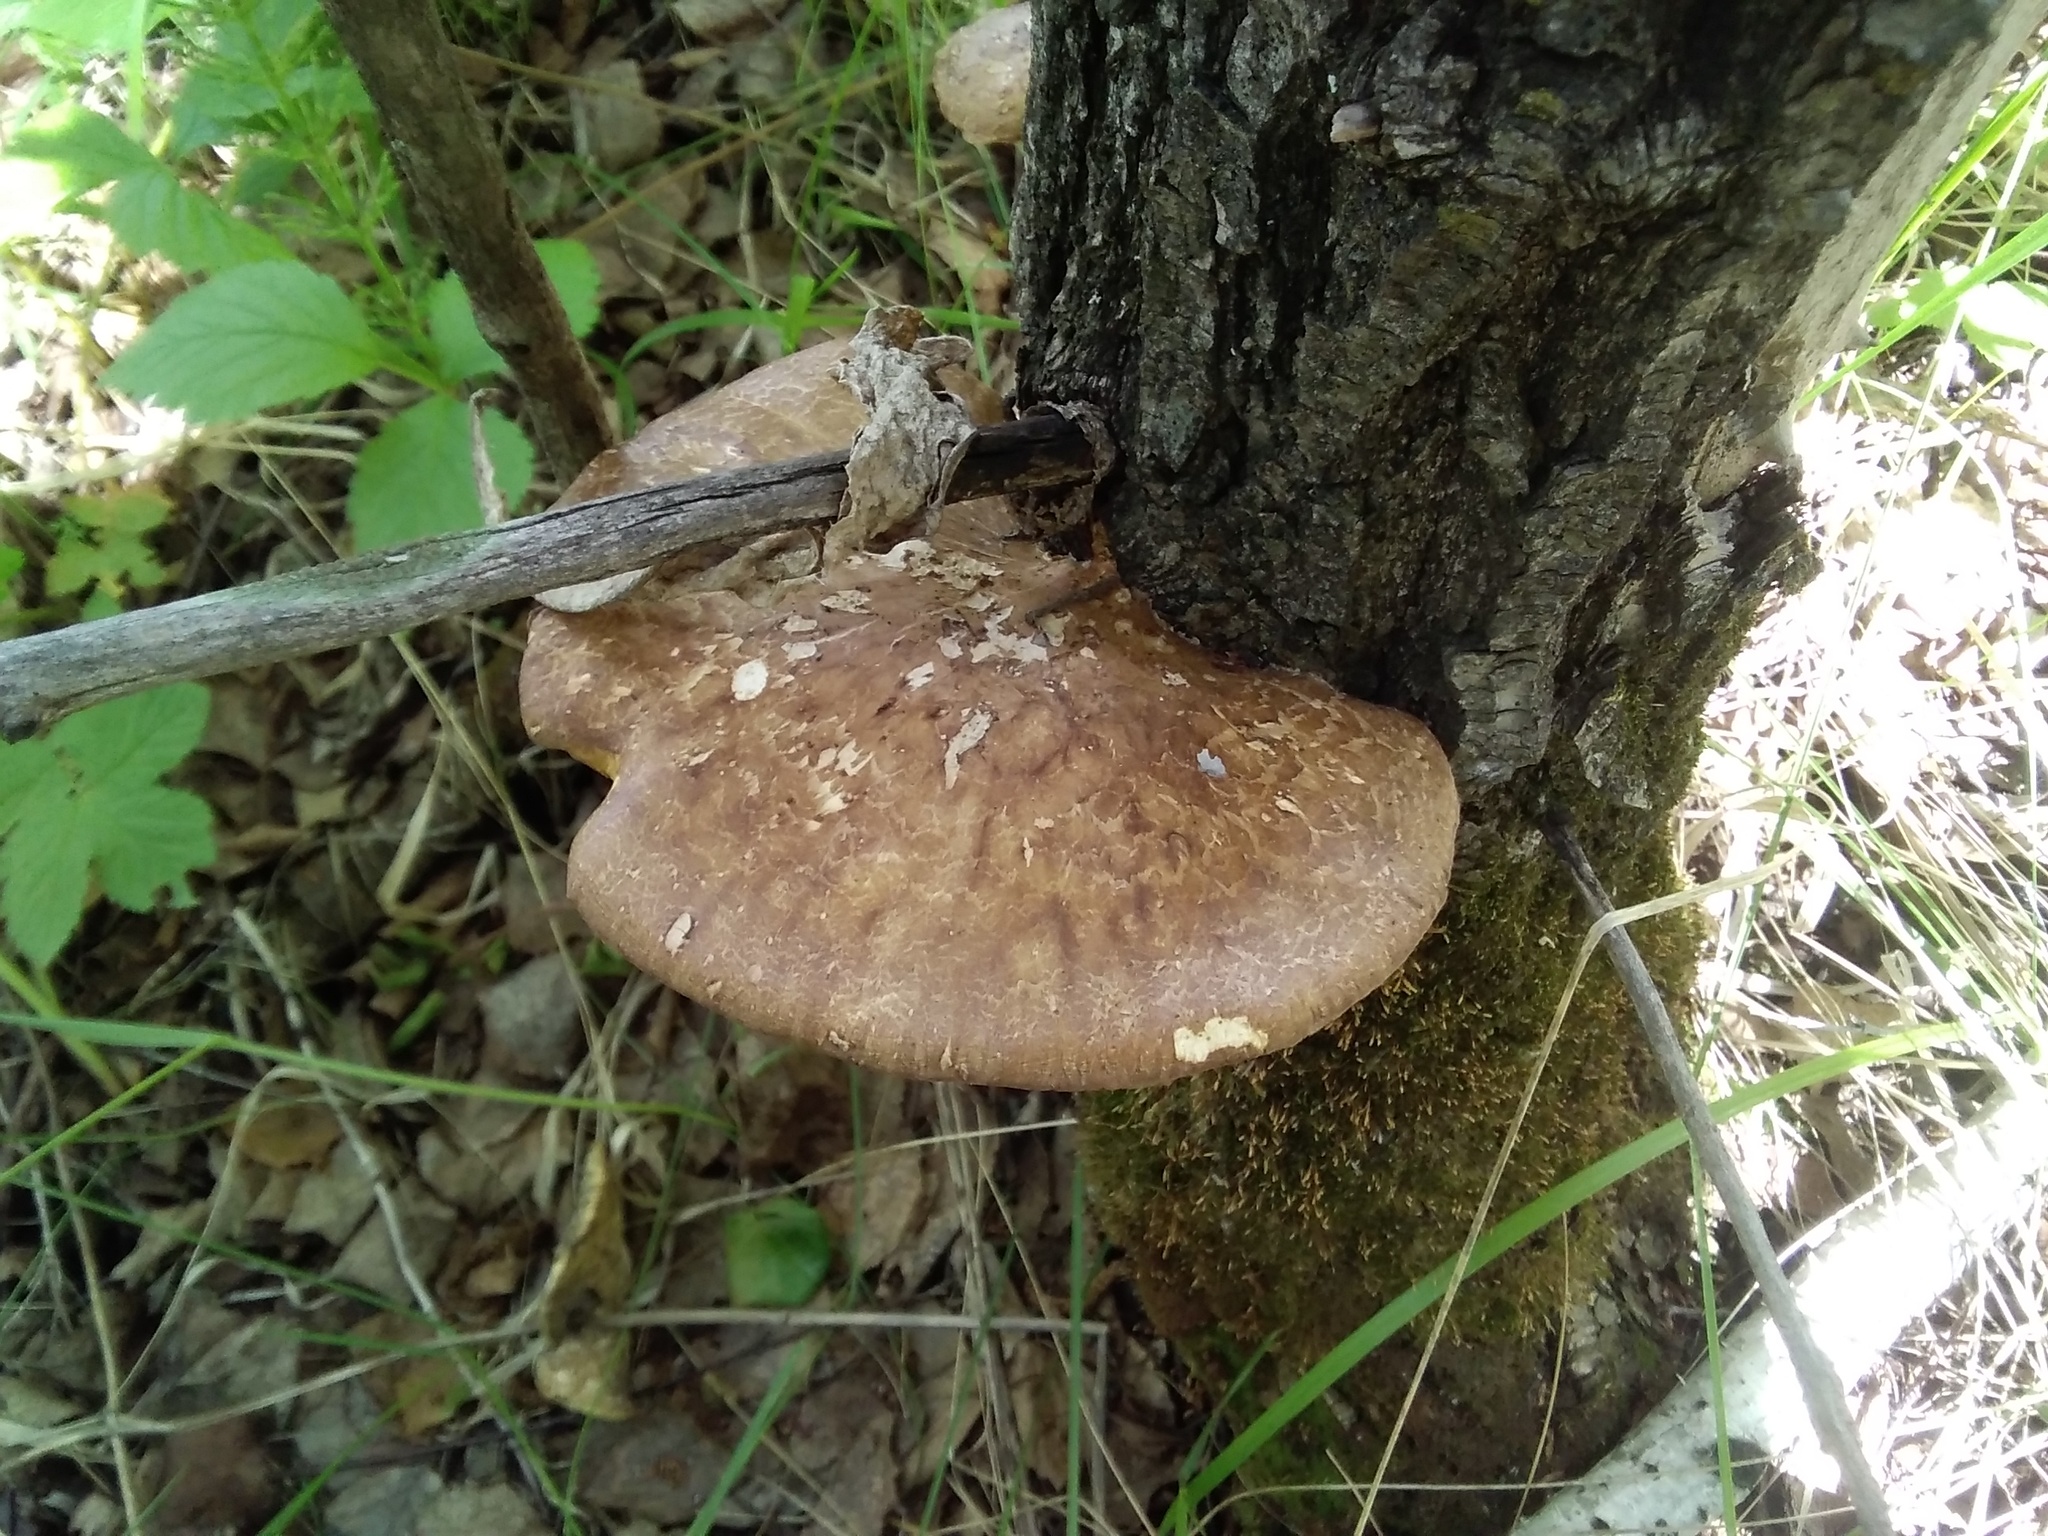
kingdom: Fungi
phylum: Basidiomycota
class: Agaricomycetes
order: Polyporales
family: Polyporaceae
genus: Favolus
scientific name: Favolus pseudobetulinus
